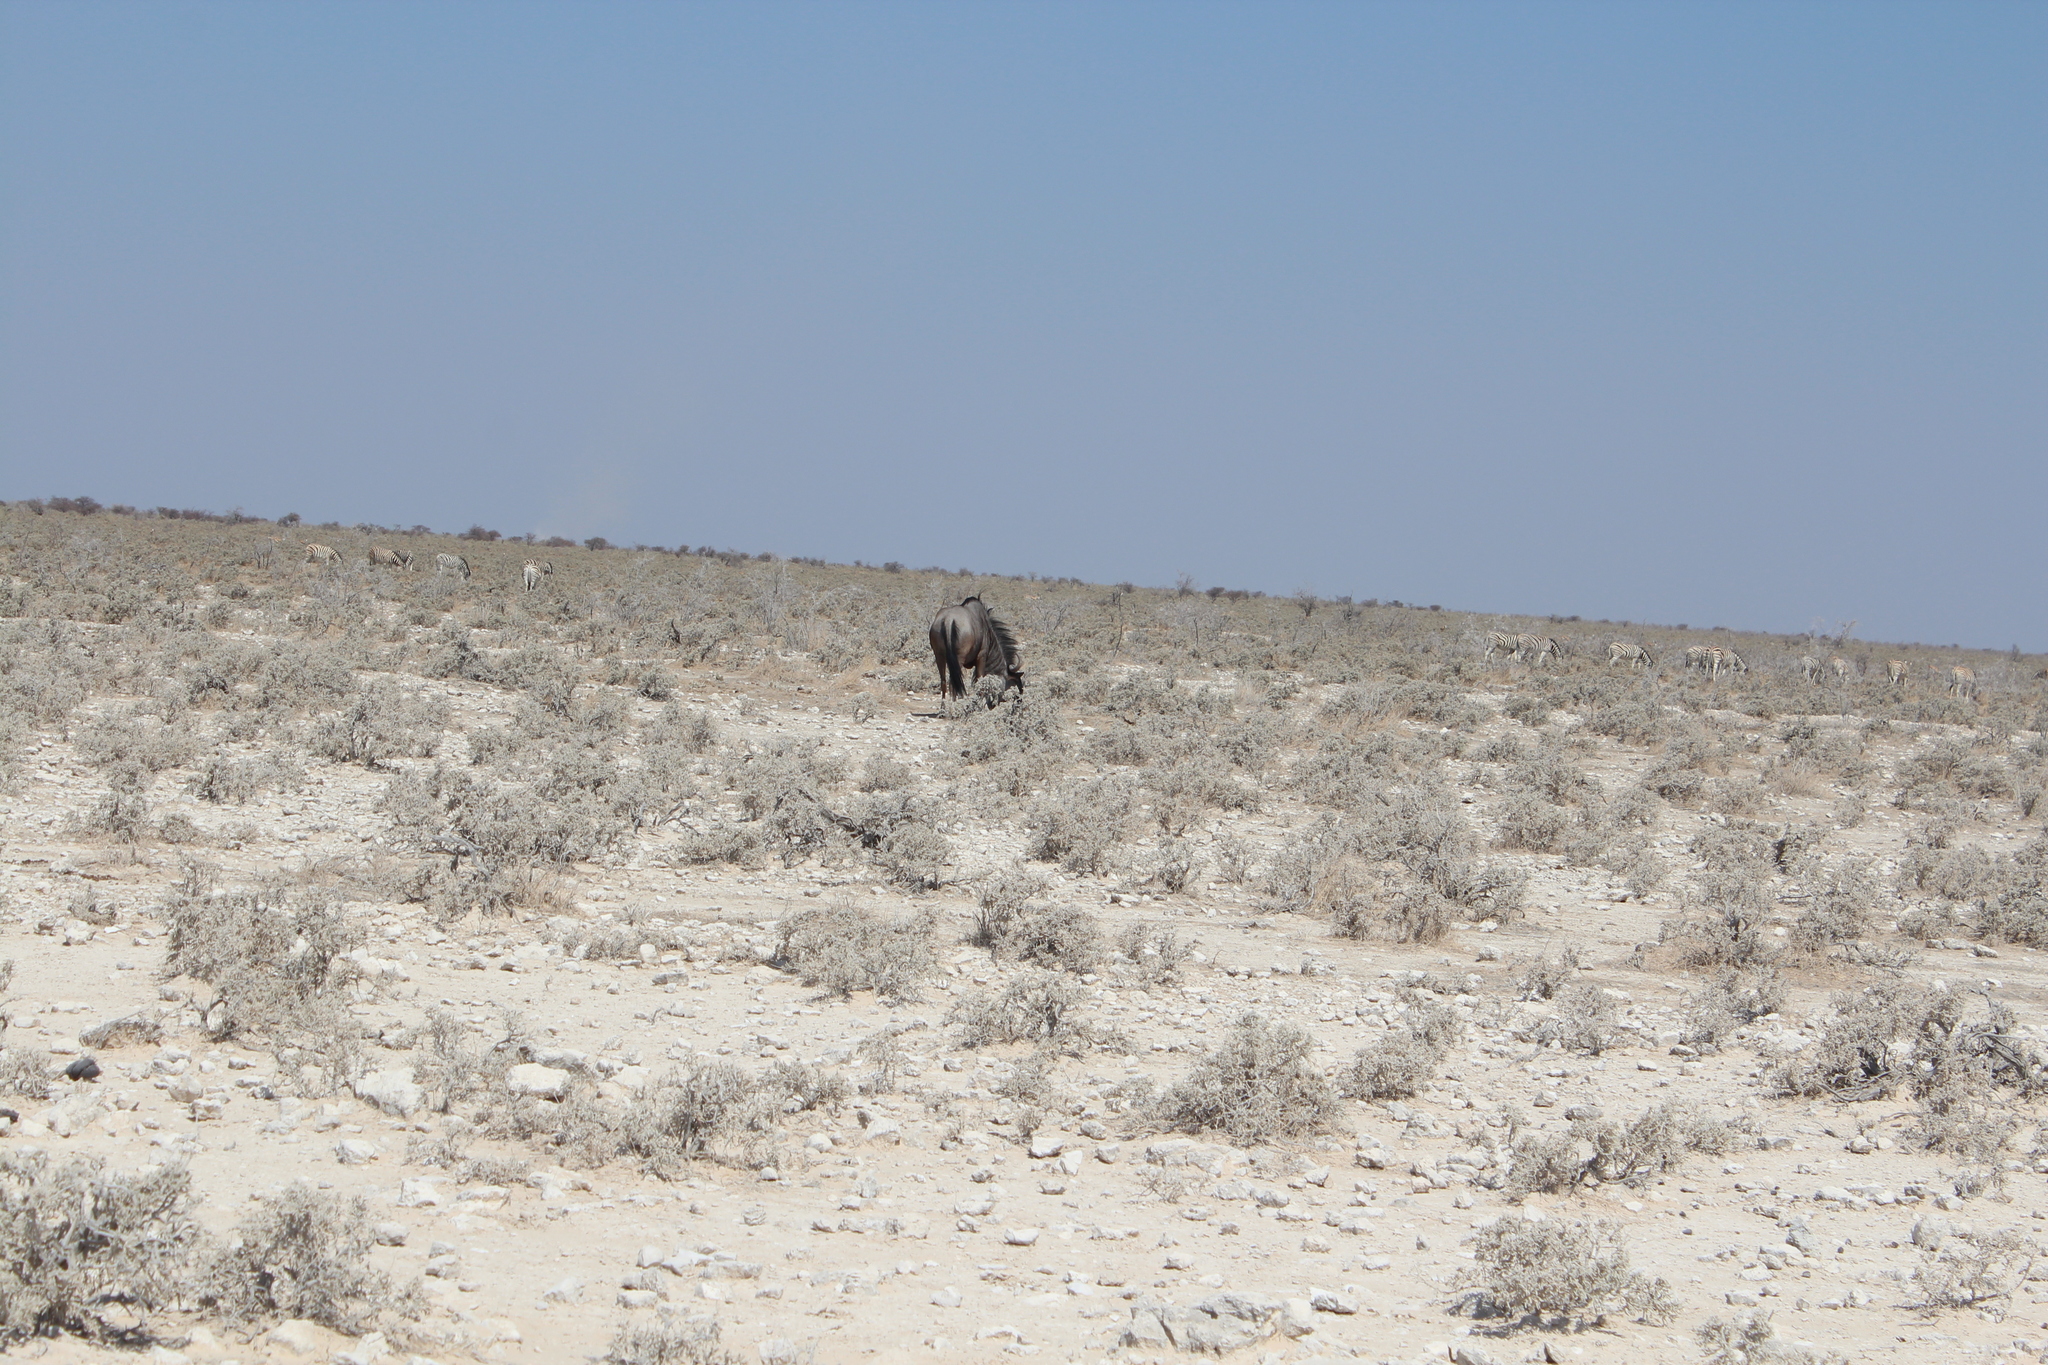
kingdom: Animalia
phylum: Chordata
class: Mammalia
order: Artiodactyla
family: Bovidae
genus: Connochaetes
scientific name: Connochaetes taurinus
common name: Blue wildebeest
